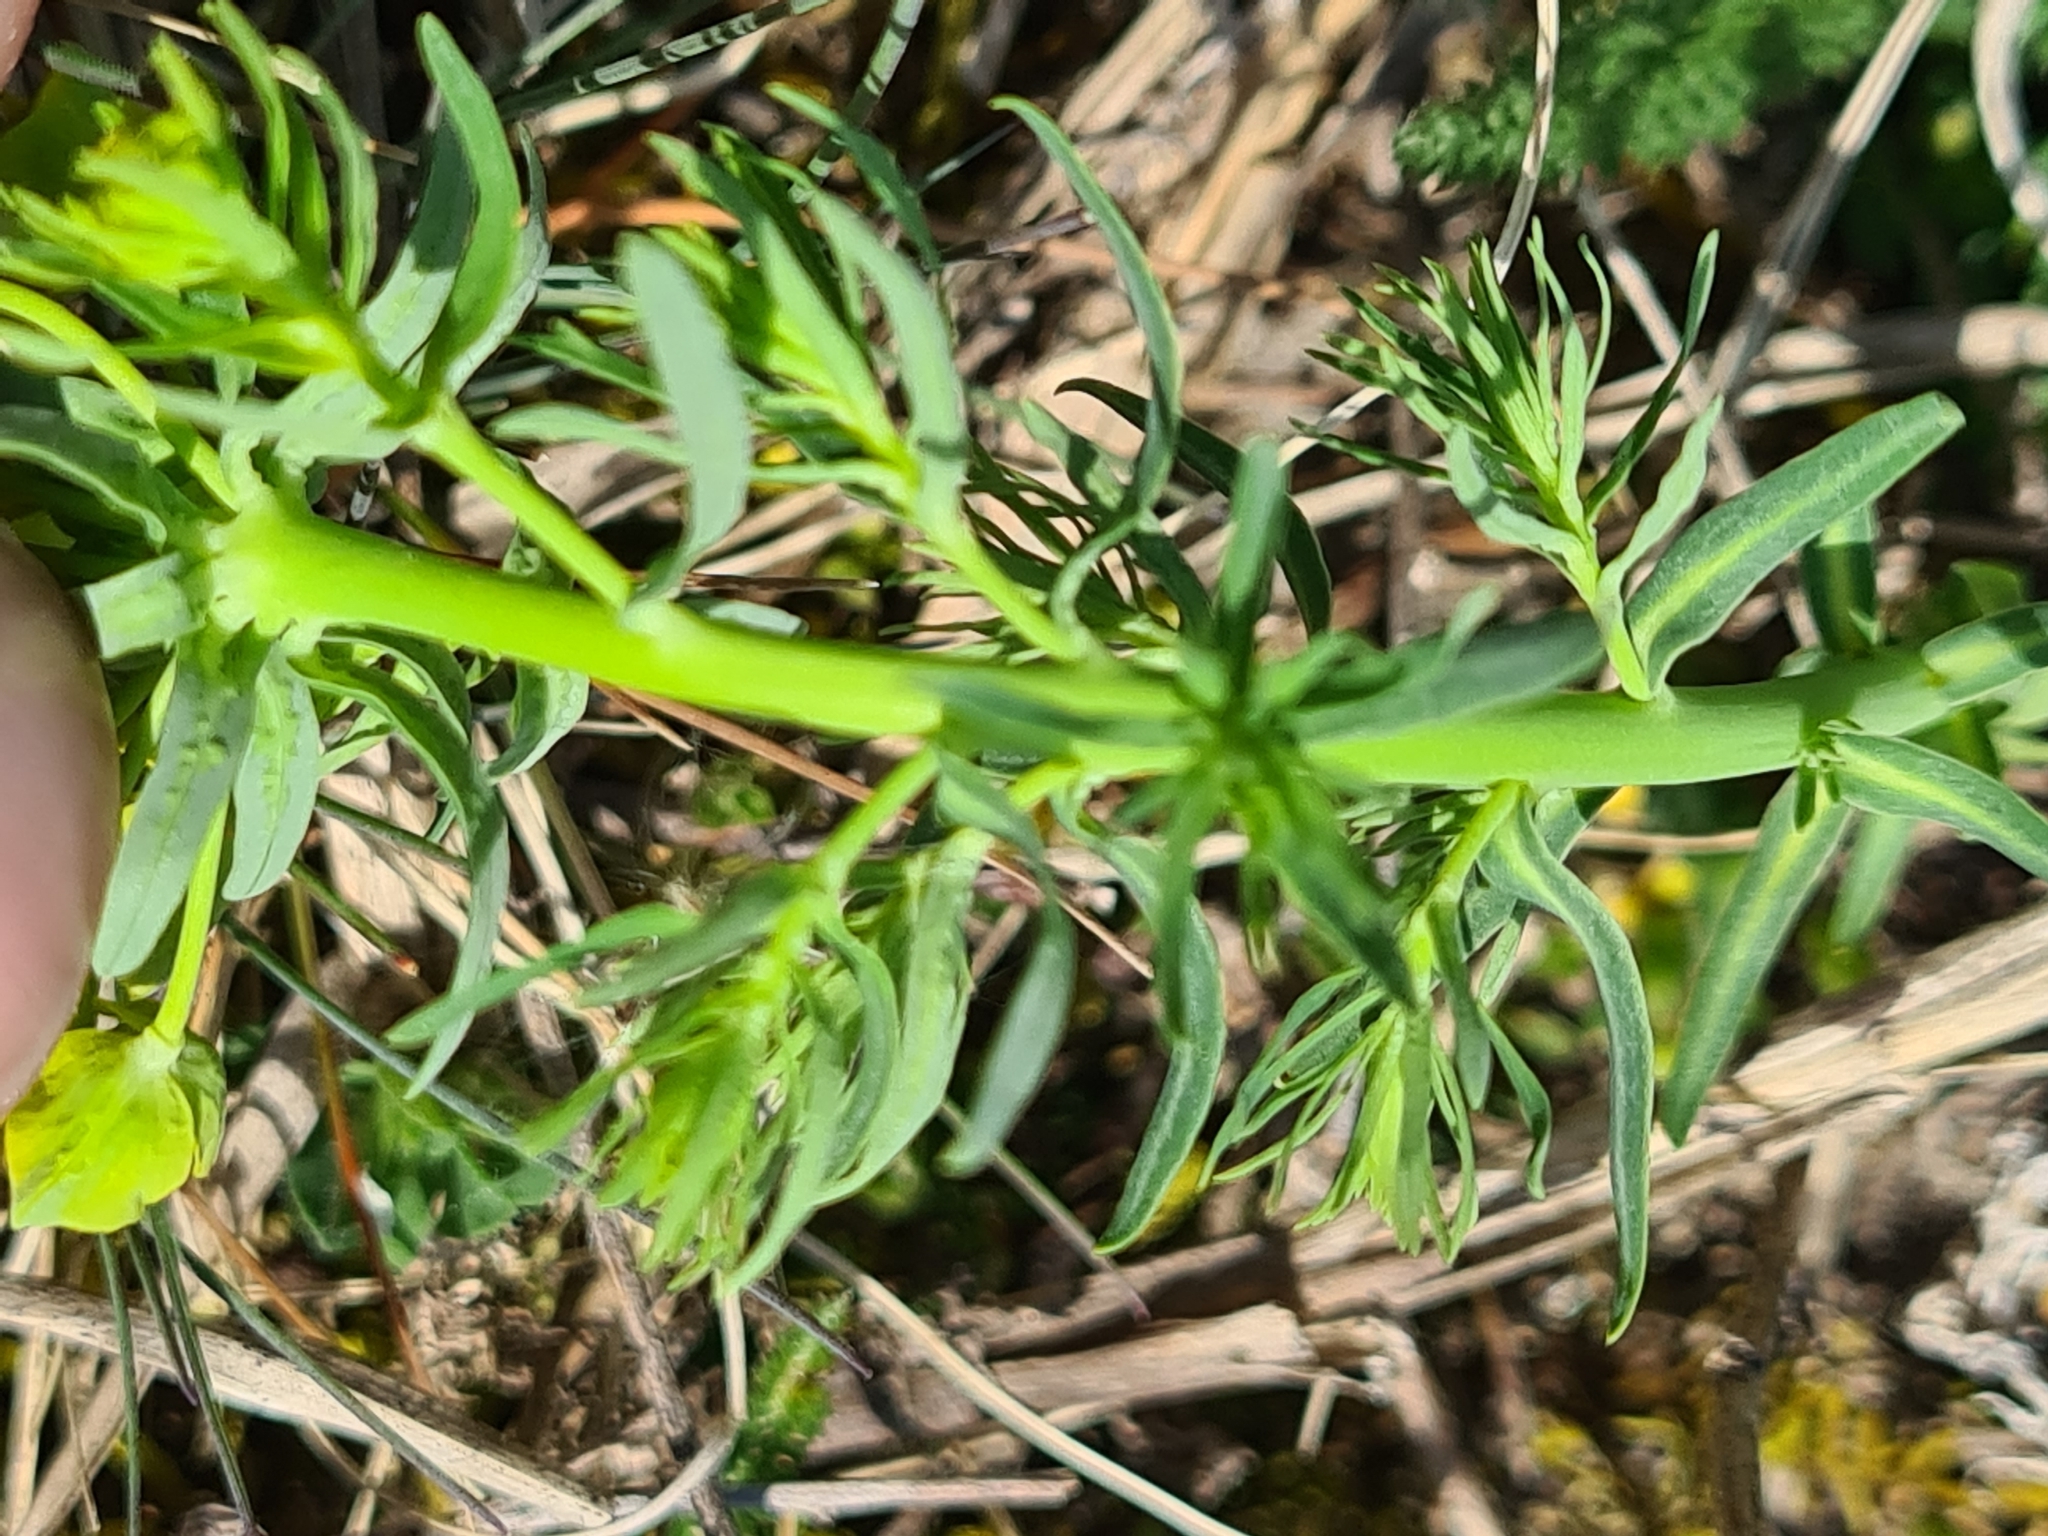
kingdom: Plantae
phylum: Tracheophyta
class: Magnoliopsida
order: Malpighiales
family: Euphorbiaceae
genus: Euphorbia
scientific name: Euphorbia cyparissias
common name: Cypress spurge
